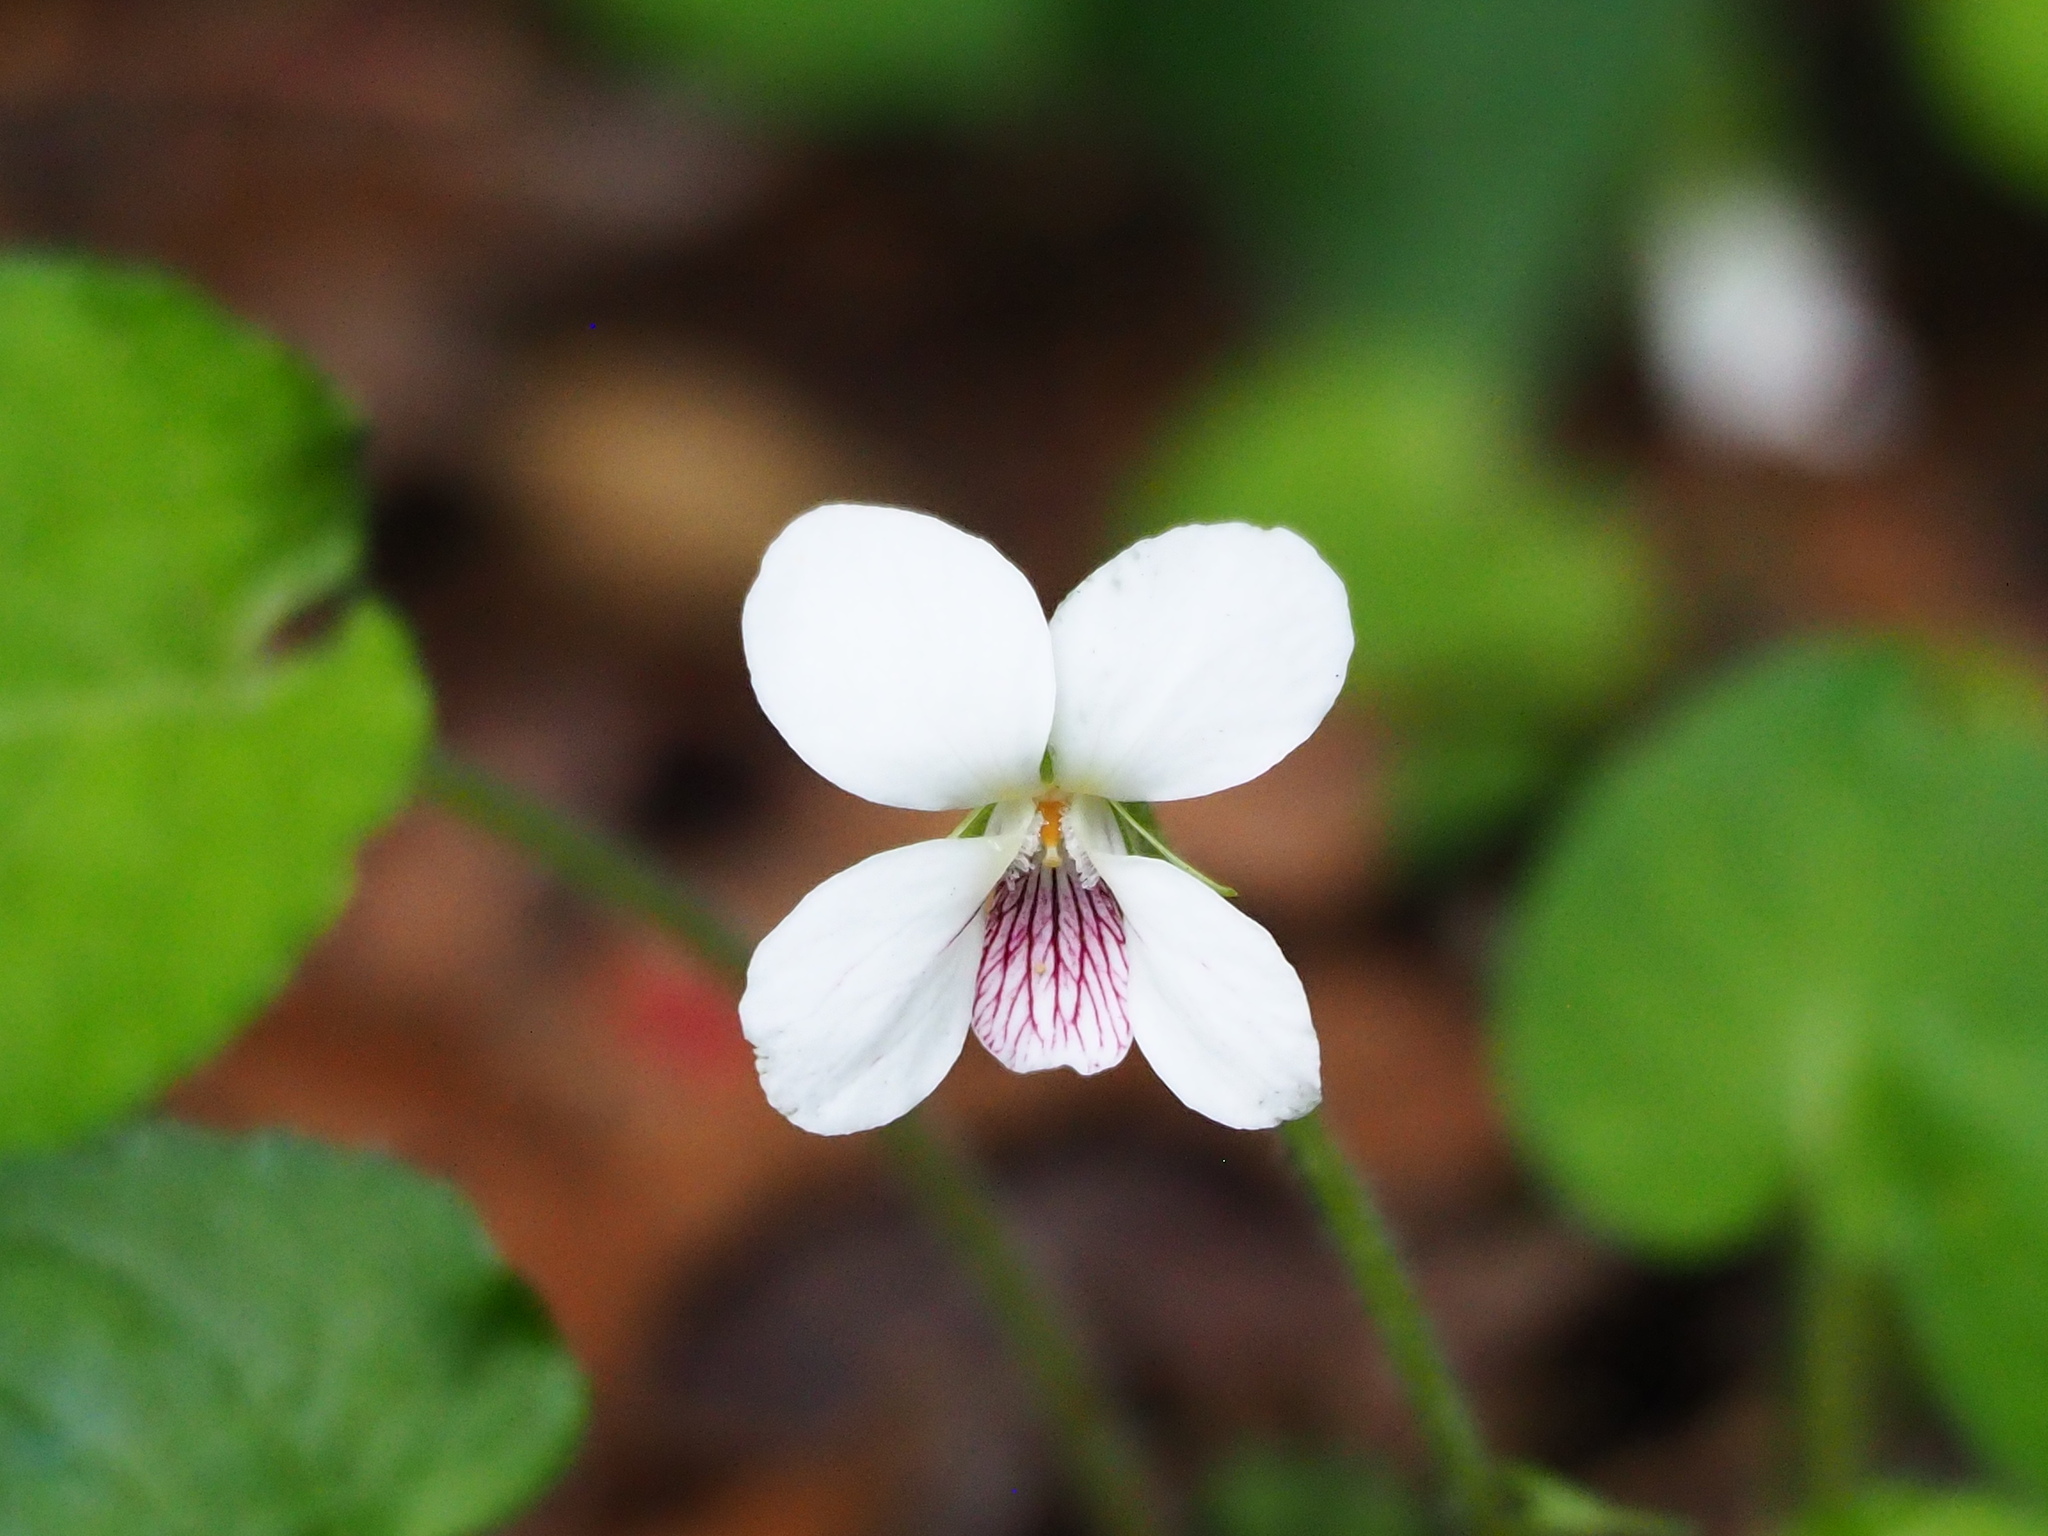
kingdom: Plantae
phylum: Tracheophyta
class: Magnoliopsida
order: Malpighiales
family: Violaceae
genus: Viola
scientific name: Viola adenothrix
